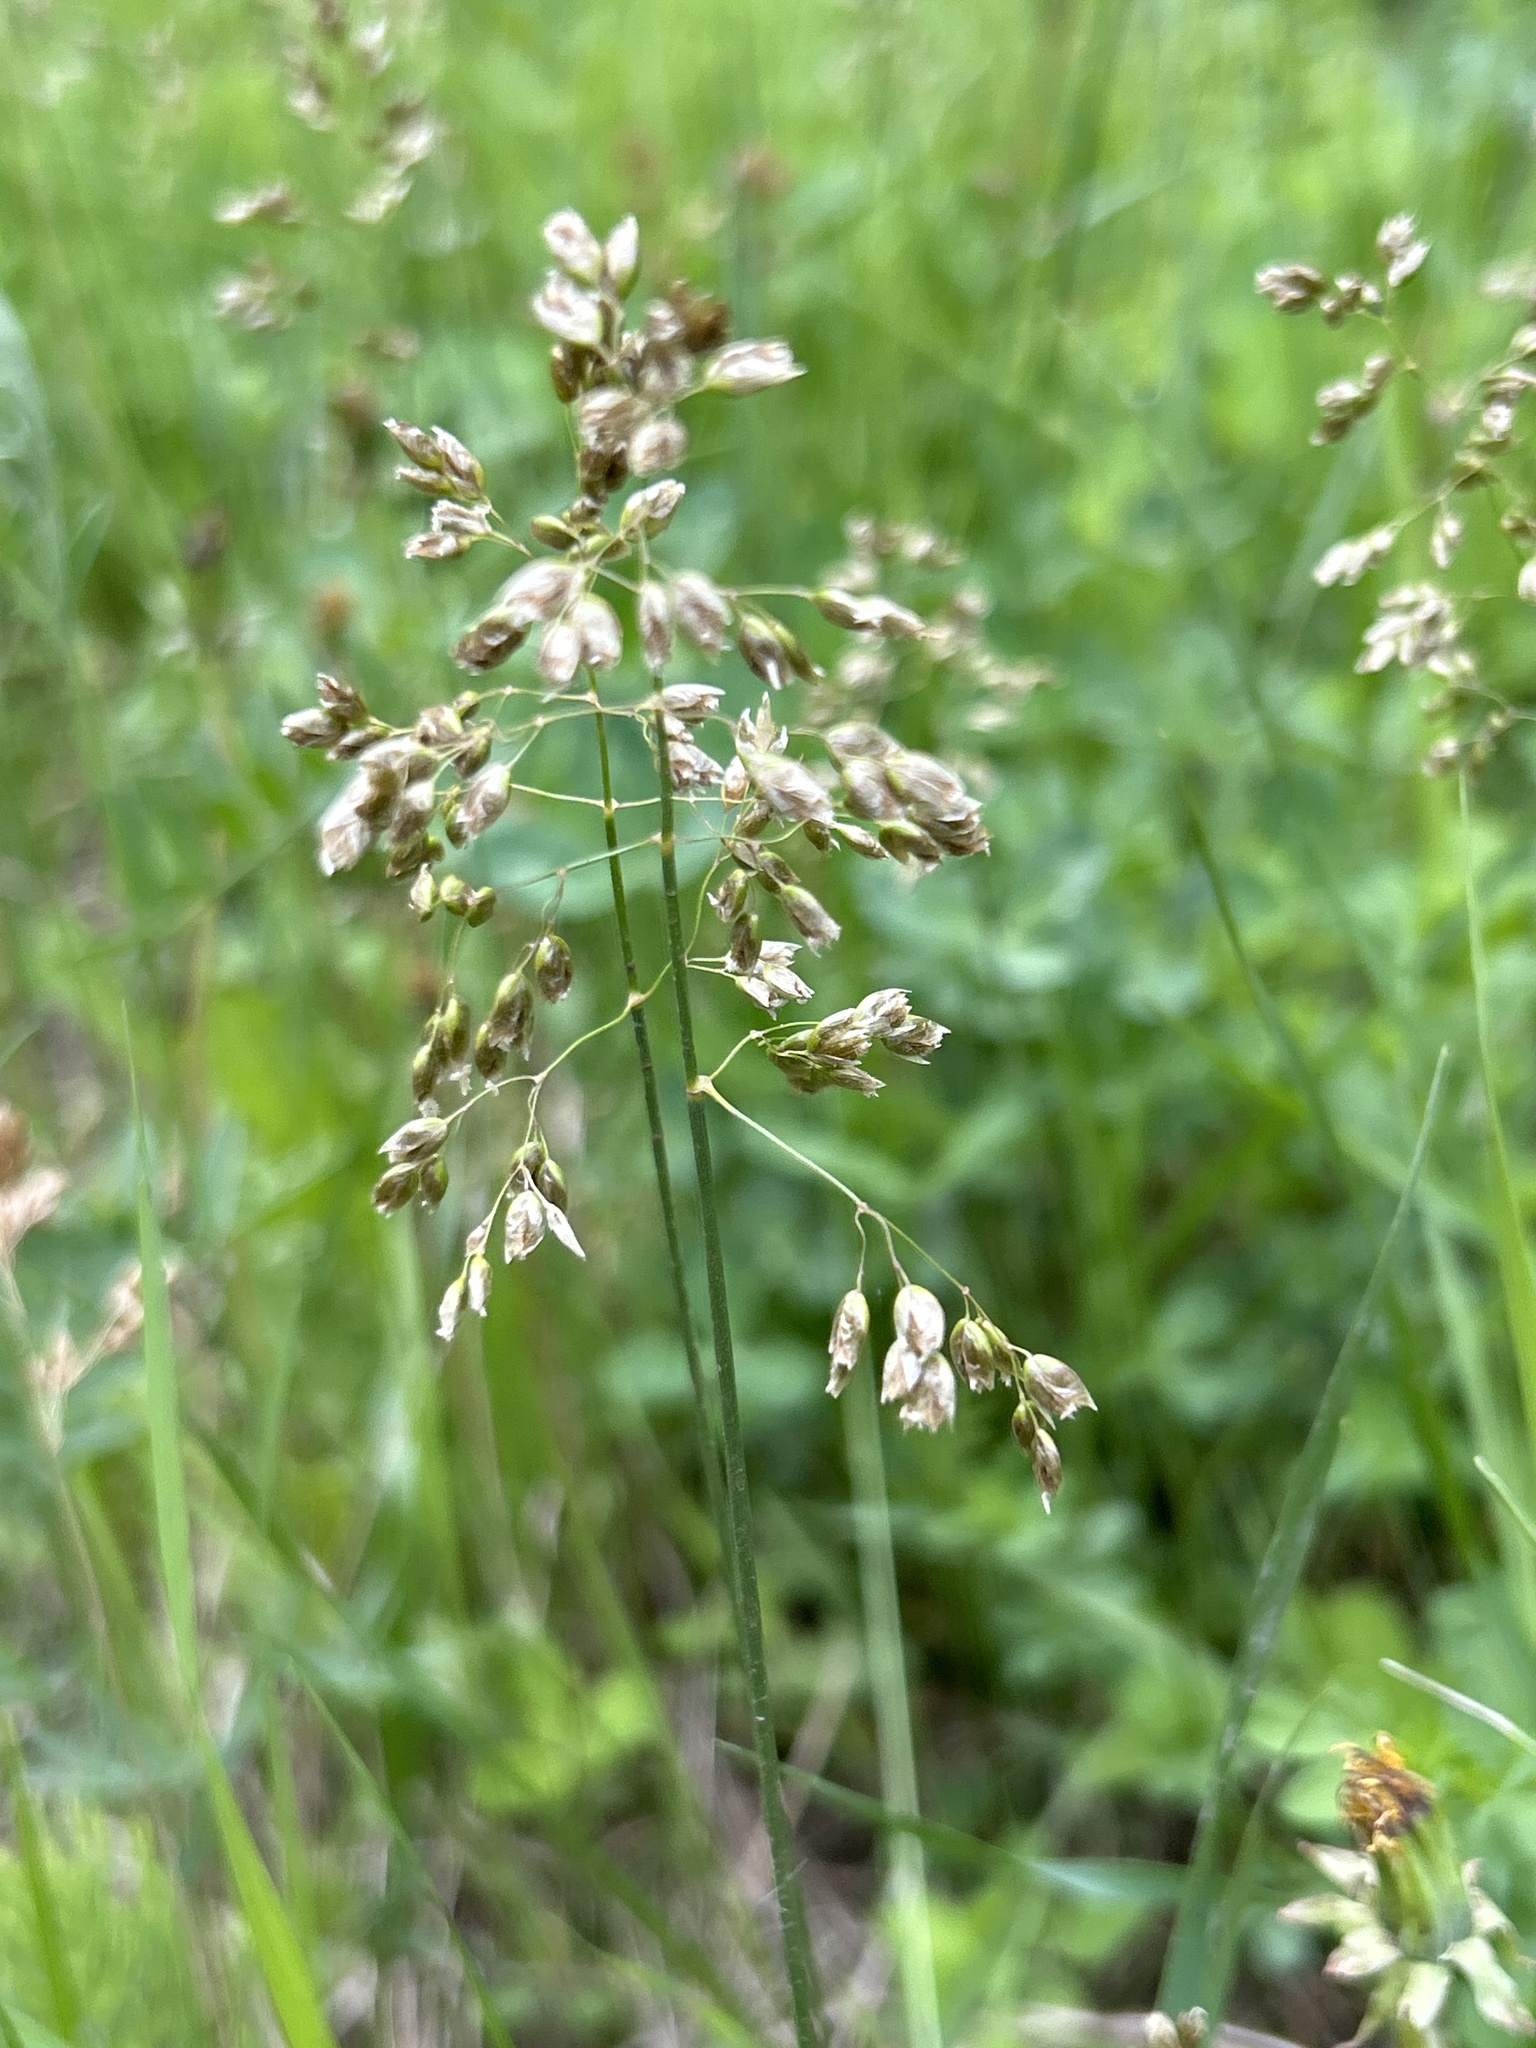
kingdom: Plantae
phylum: Tracheophyta
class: Liliopsida
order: Poales
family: Poaceae
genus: Anthoxanthum
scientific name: Anthoxanthum nitens
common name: Holy grass
